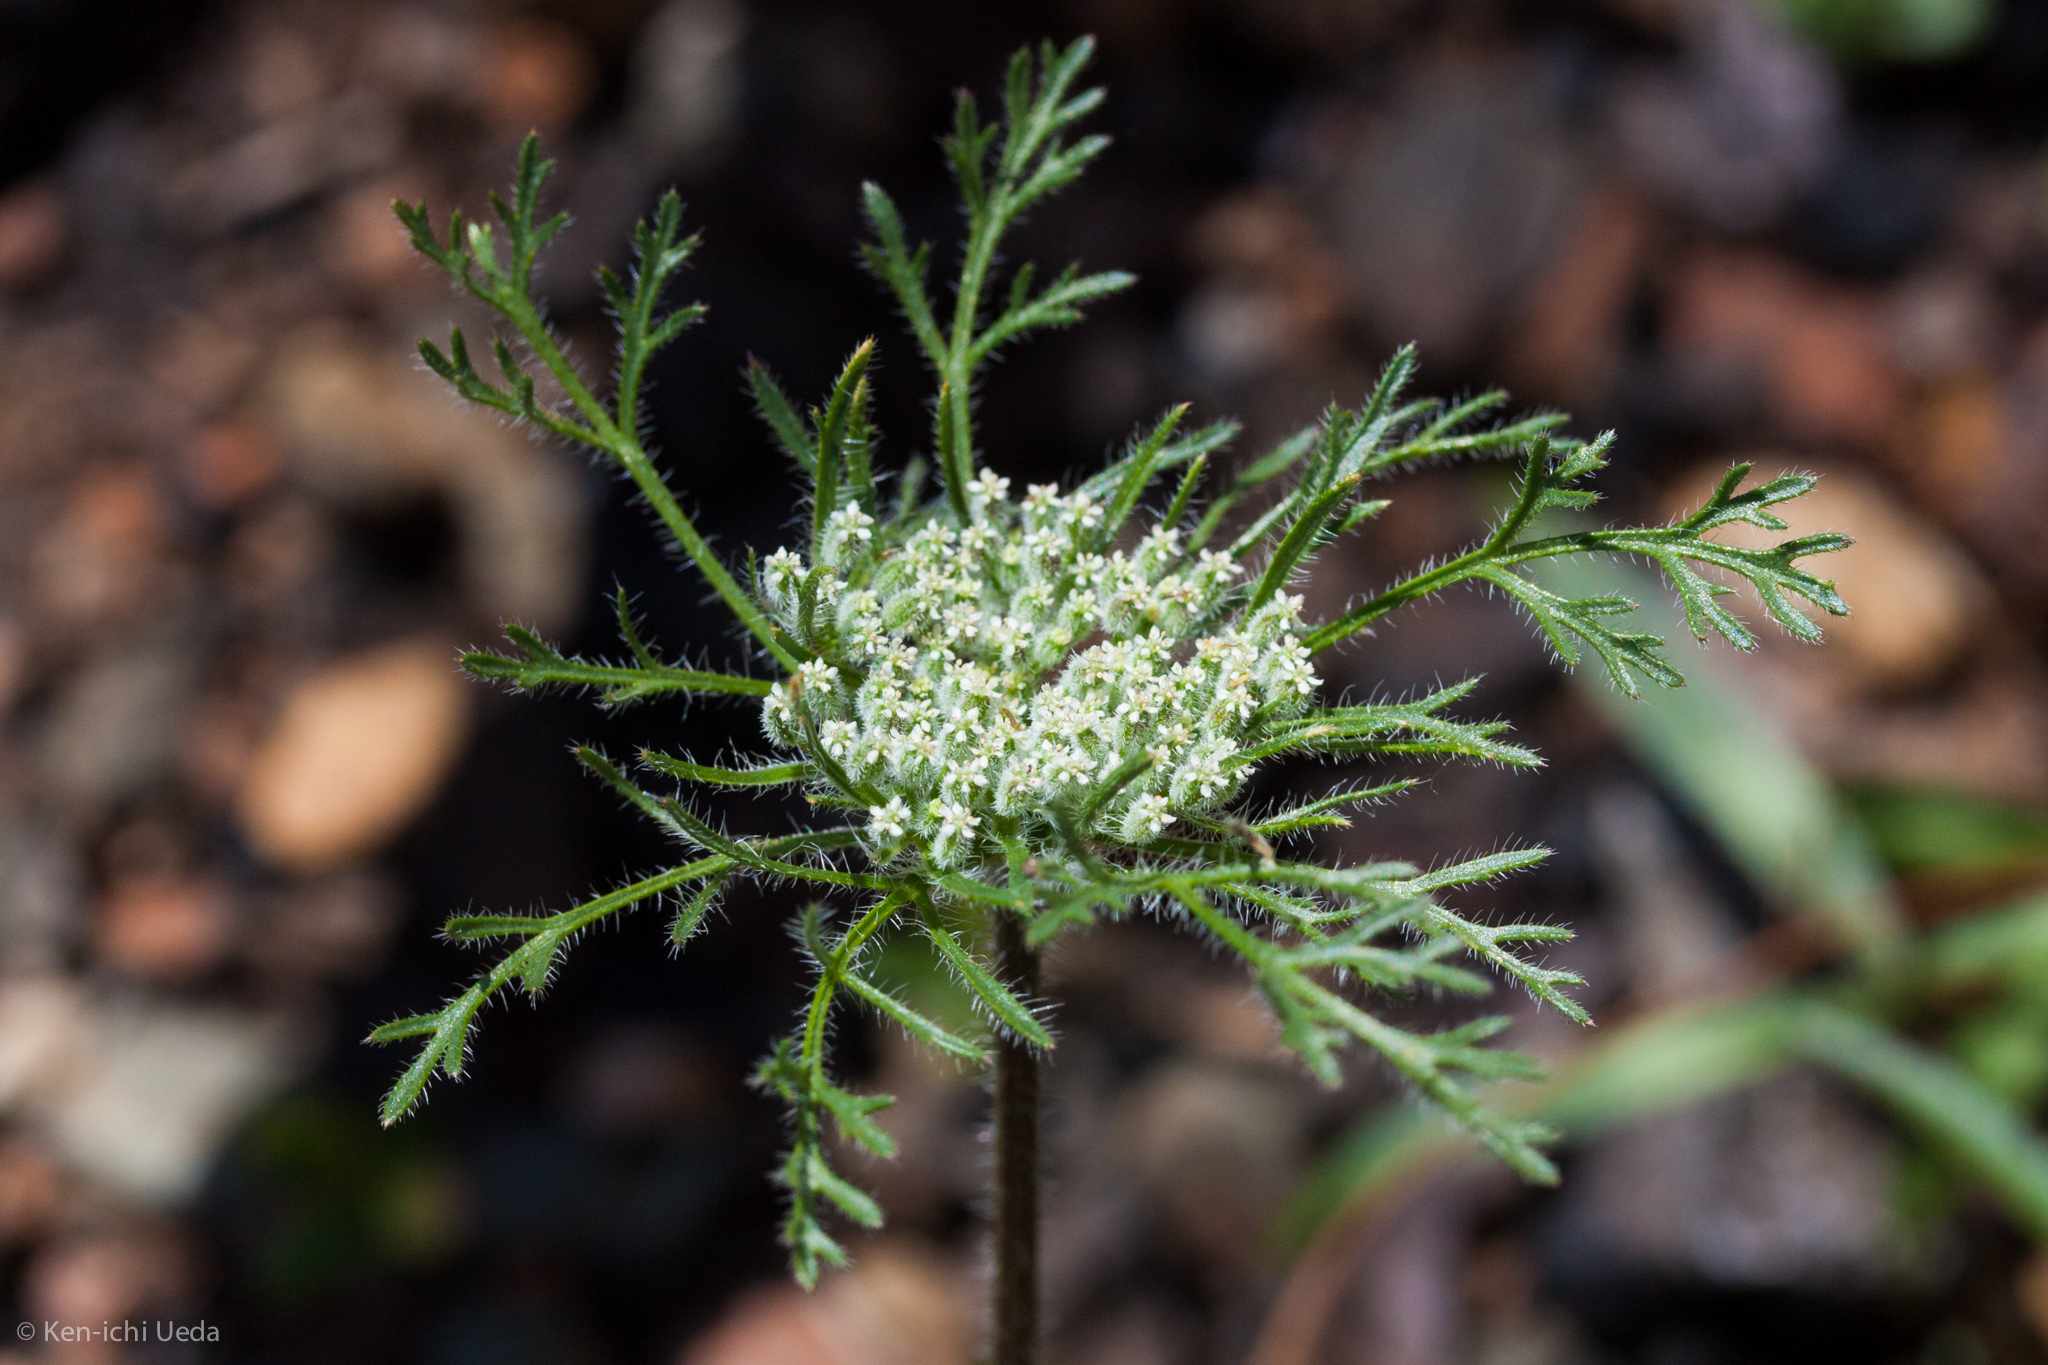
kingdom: Plantae
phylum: Tracheophyta
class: Magnoliopsida
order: Apiales
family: Apiaceae
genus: Daucus
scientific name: Daucus pusillus
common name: Southwest wild carrot
